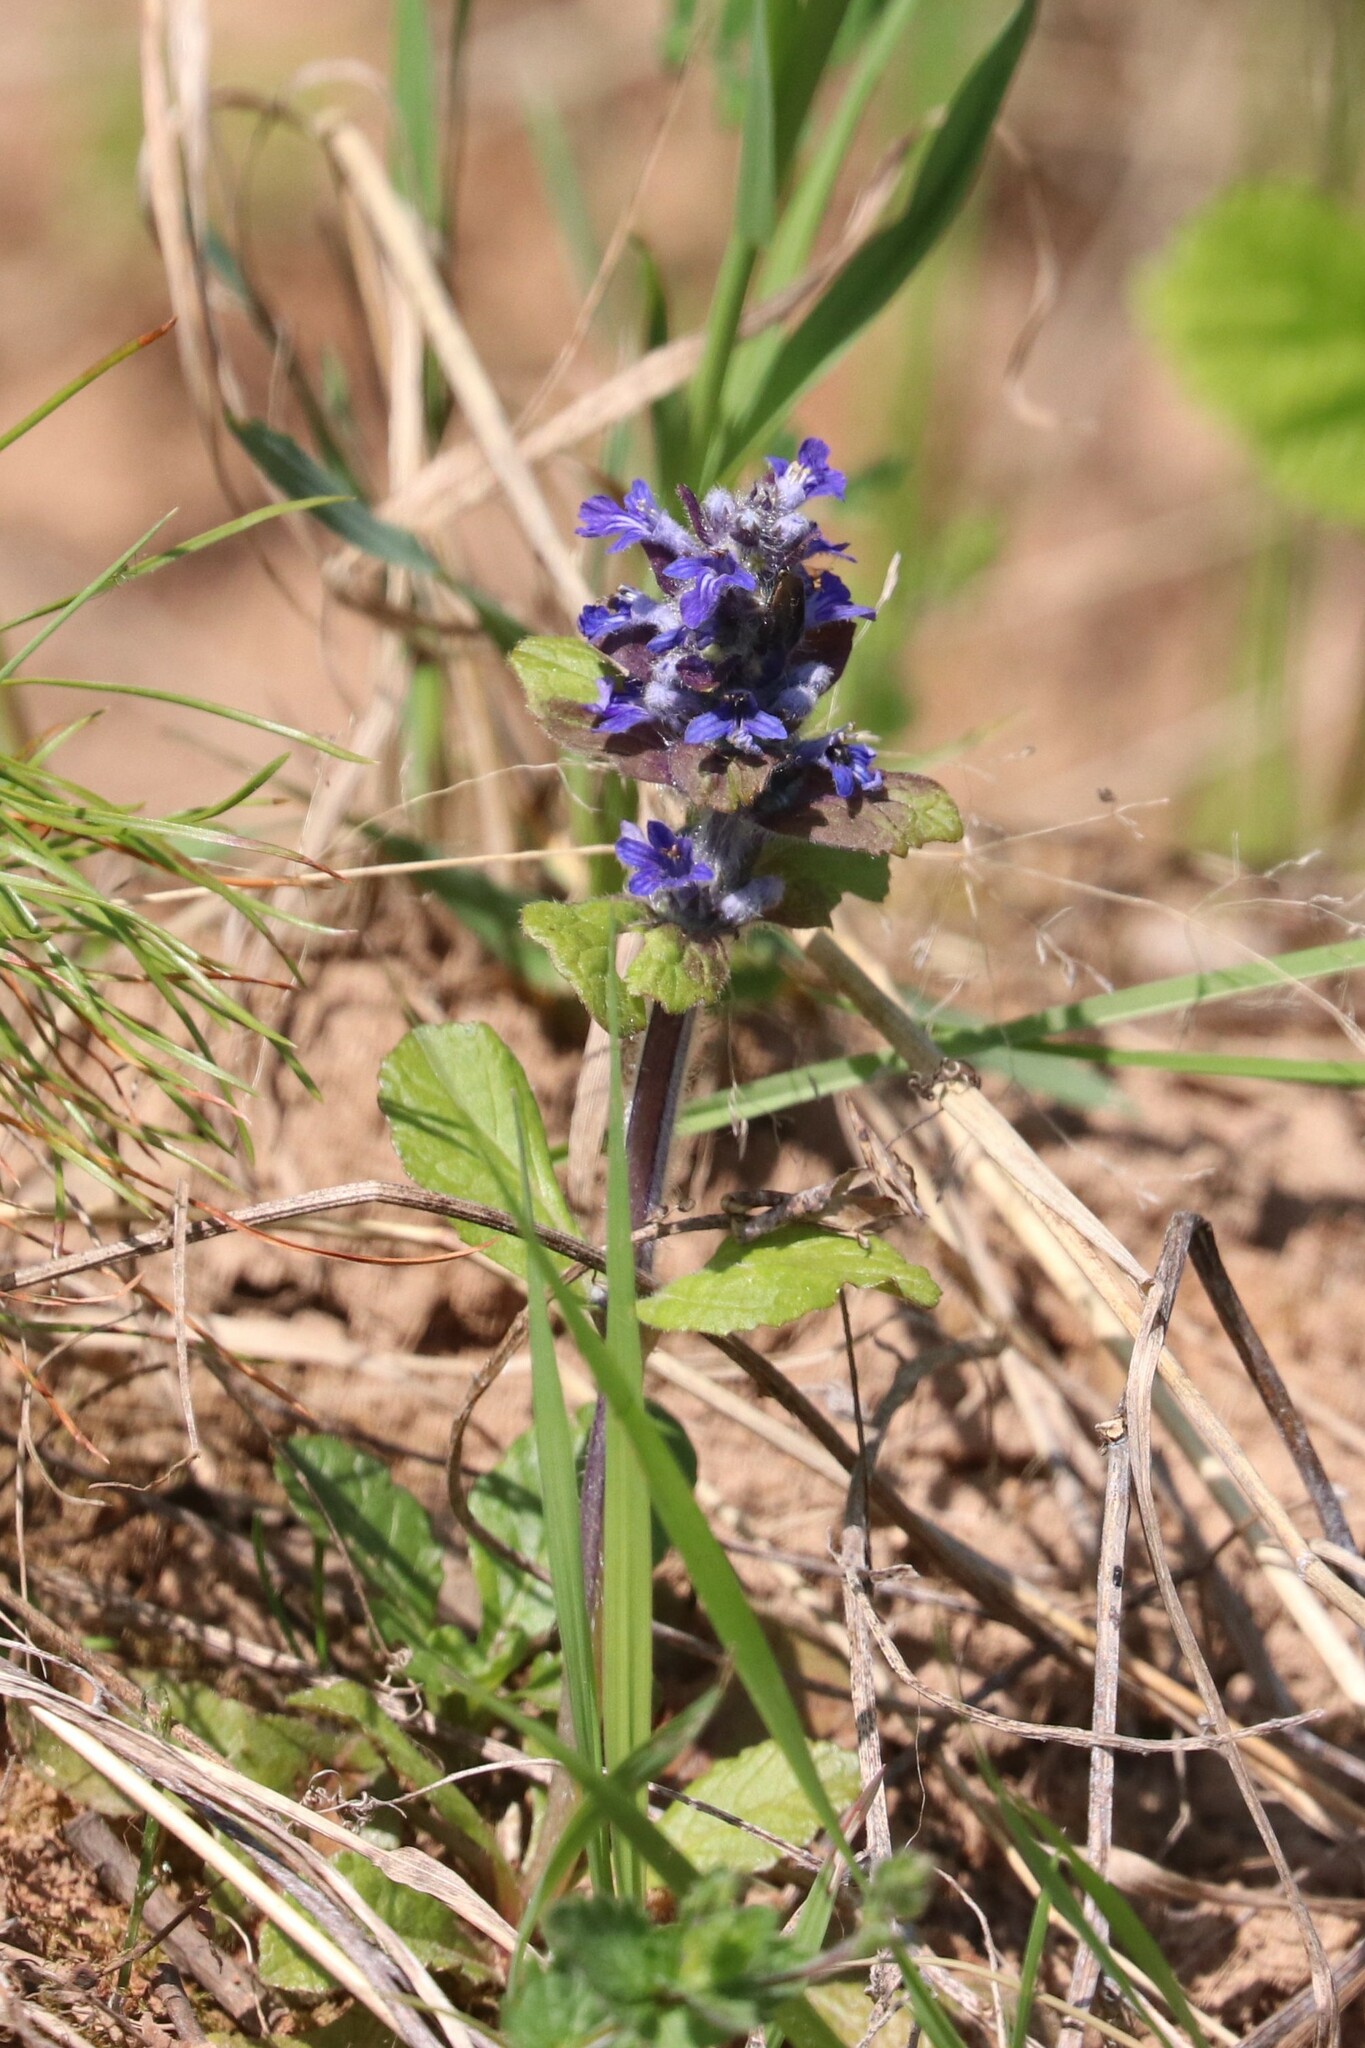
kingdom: Plantae
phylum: Tracheophyta
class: Magnoliopsida
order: Lamiales
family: Lamiaceae
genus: Ajuga
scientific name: Ajuga reptans
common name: Bugle
